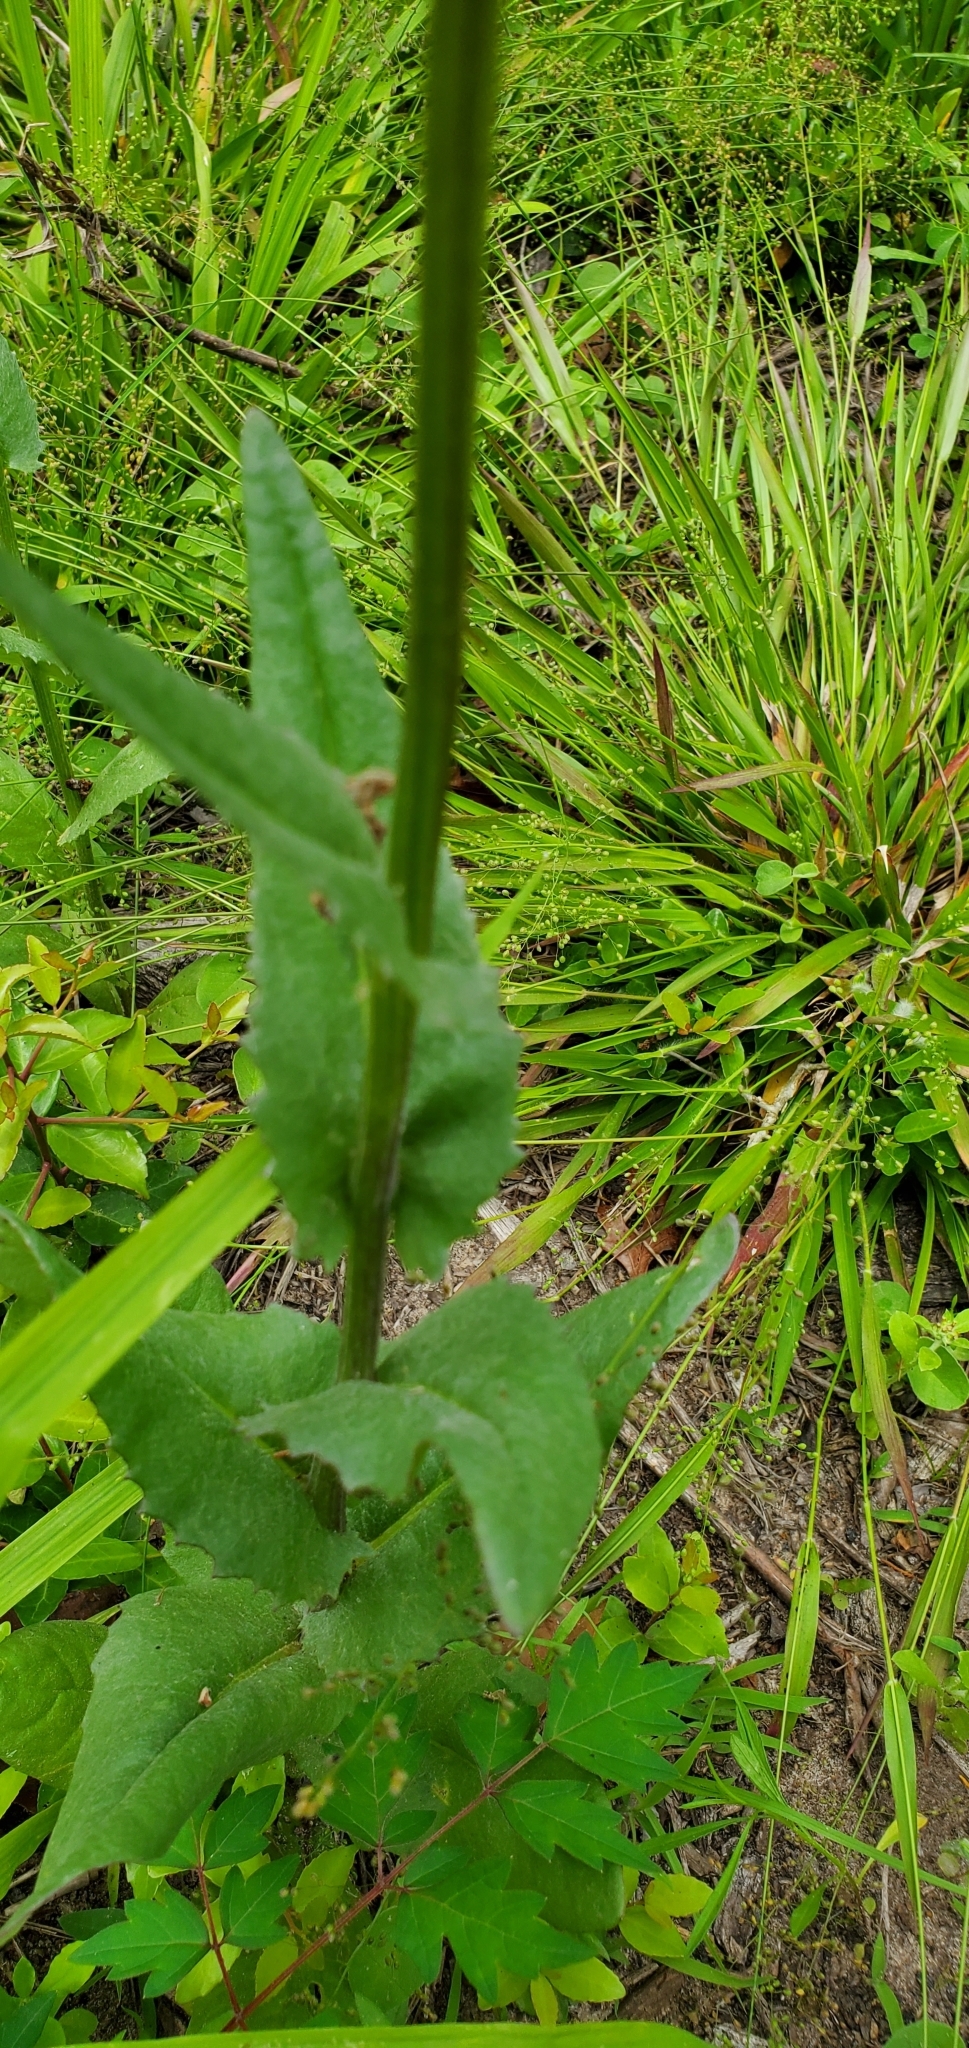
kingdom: Plantae
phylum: Tracheophyta
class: Magnoliopsida
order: Asterales
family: Asteraceae
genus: Senecio
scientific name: Senecio ampullaceus
